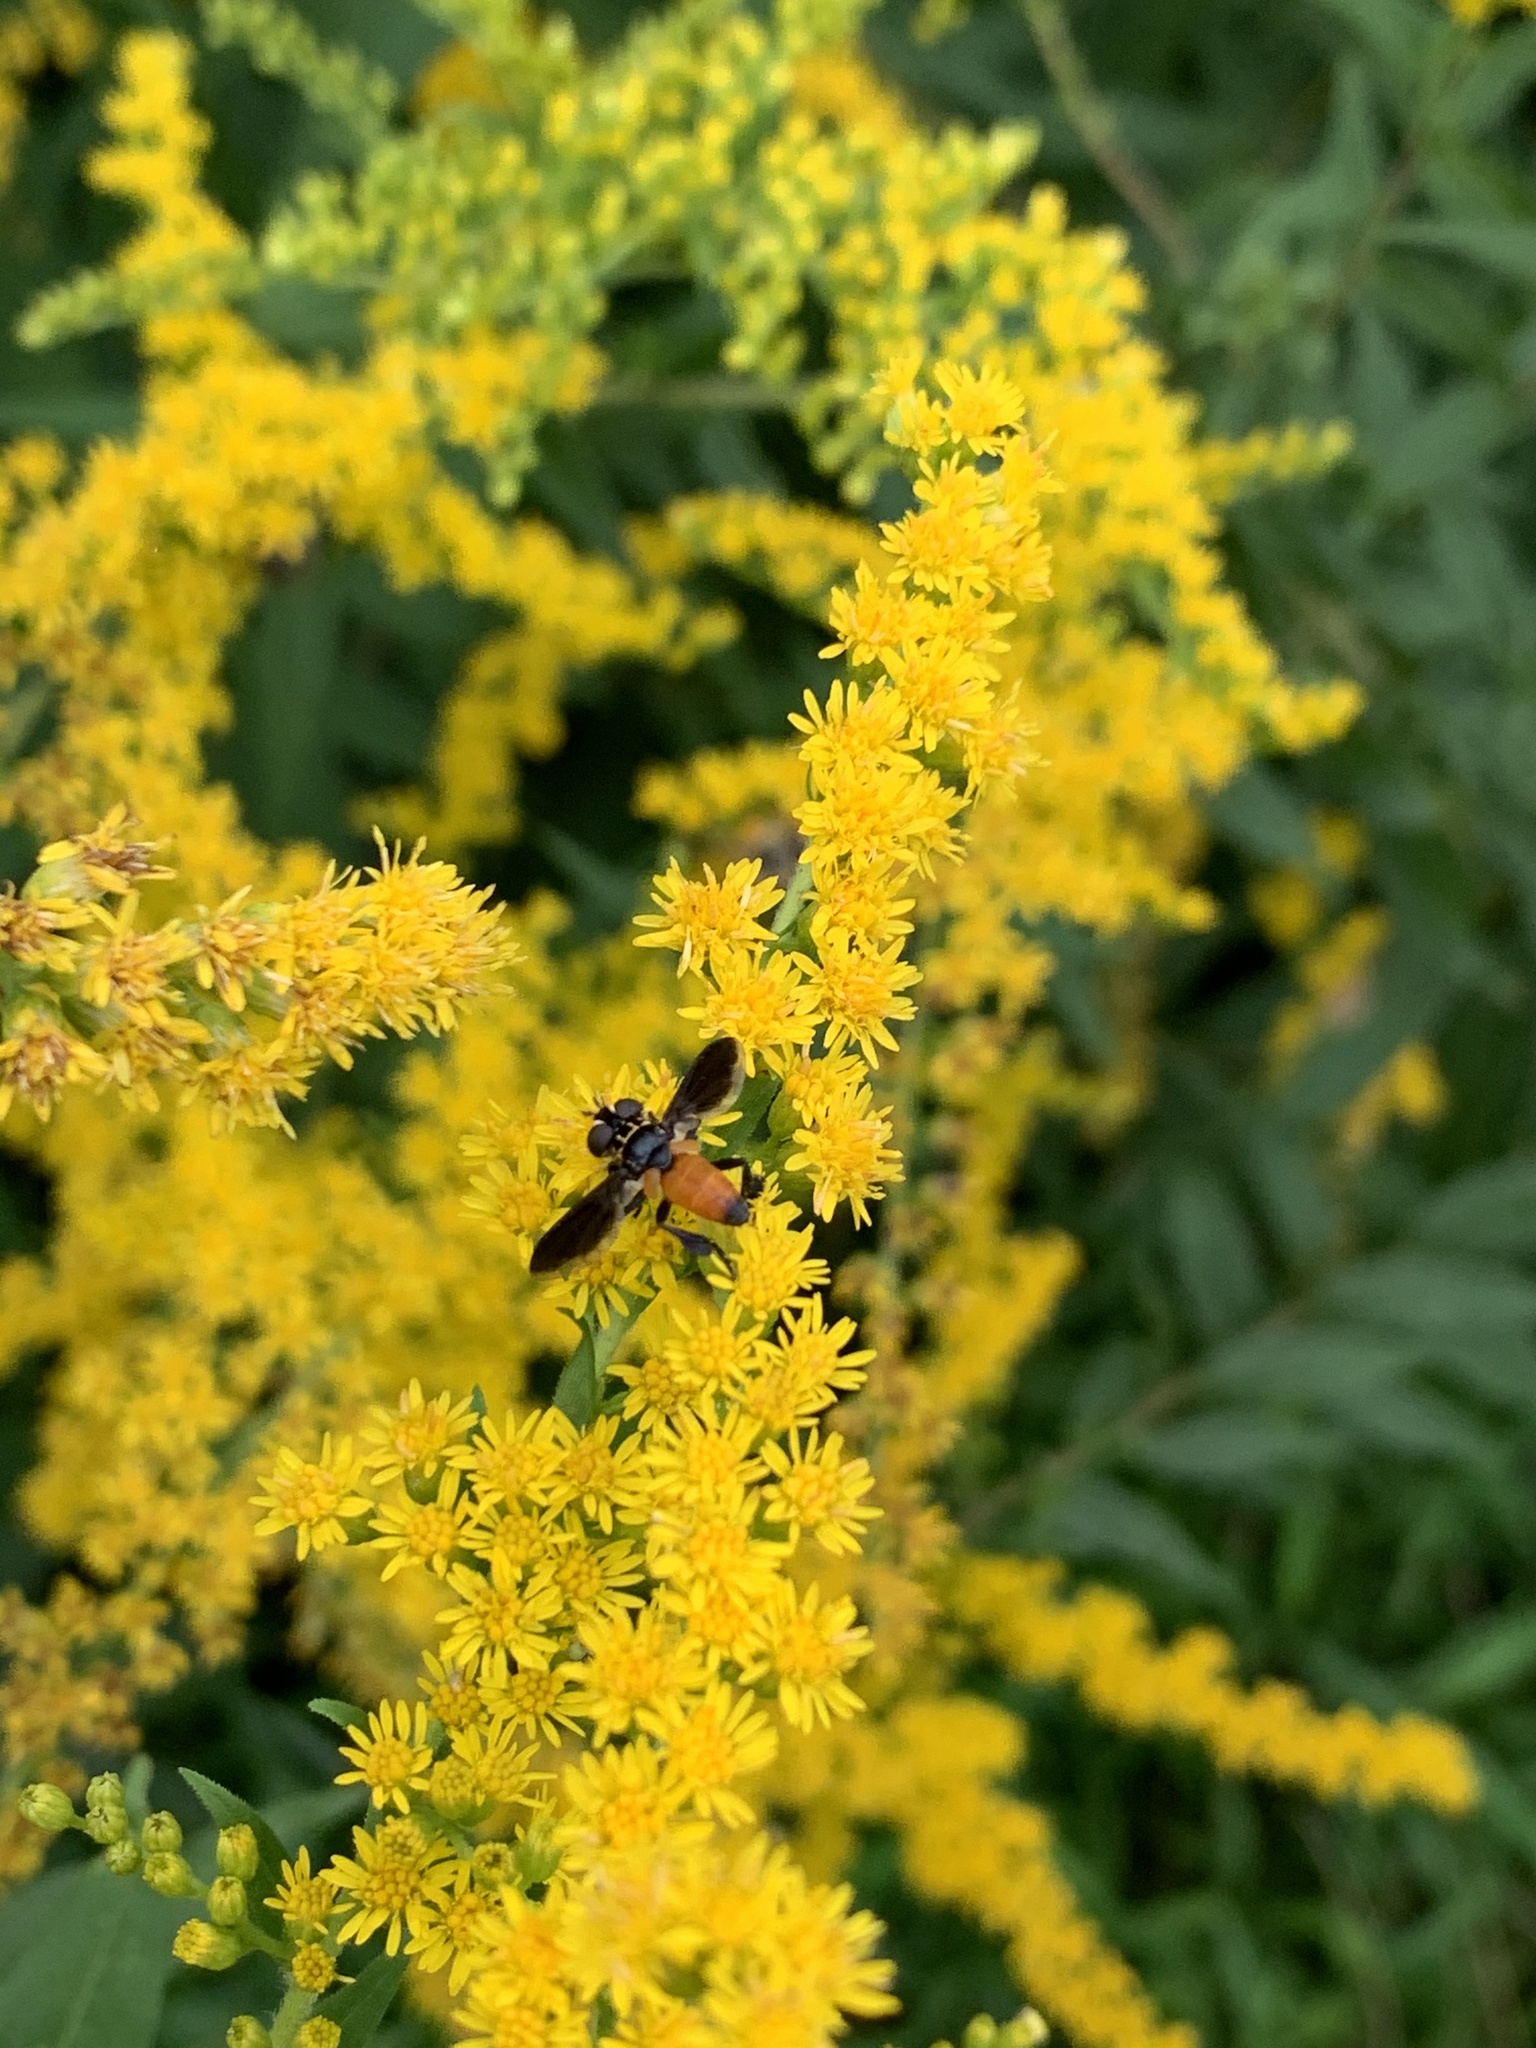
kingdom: Animalia
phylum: Arthropoda
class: Insecta
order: Diptera
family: Tachinidae
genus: Trichopoda
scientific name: Trichopoda pennipes
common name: Tachinid fly
